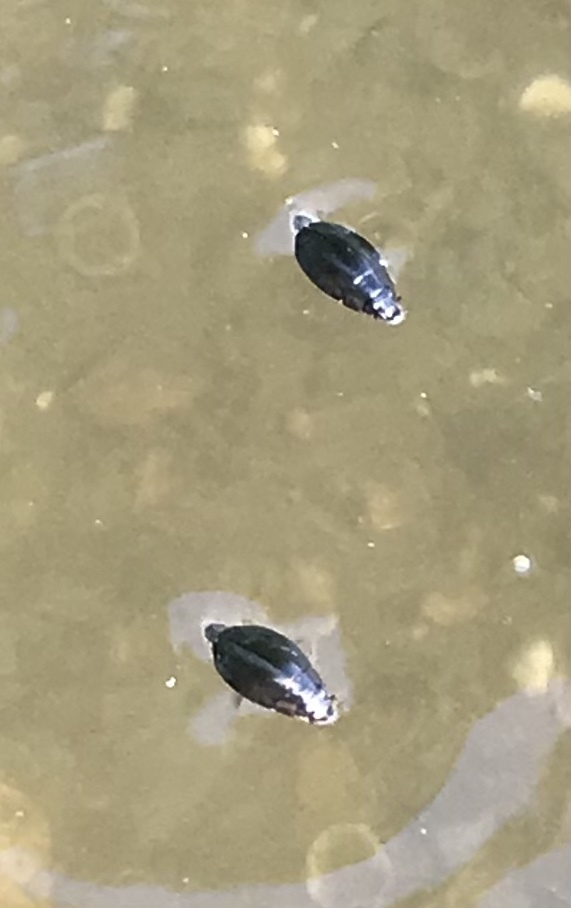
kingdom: Animalia
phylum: Arthropoda
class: Insecta
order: Coleoptera
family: Gyrinidae
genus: Dineutus
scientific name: Dineutus
